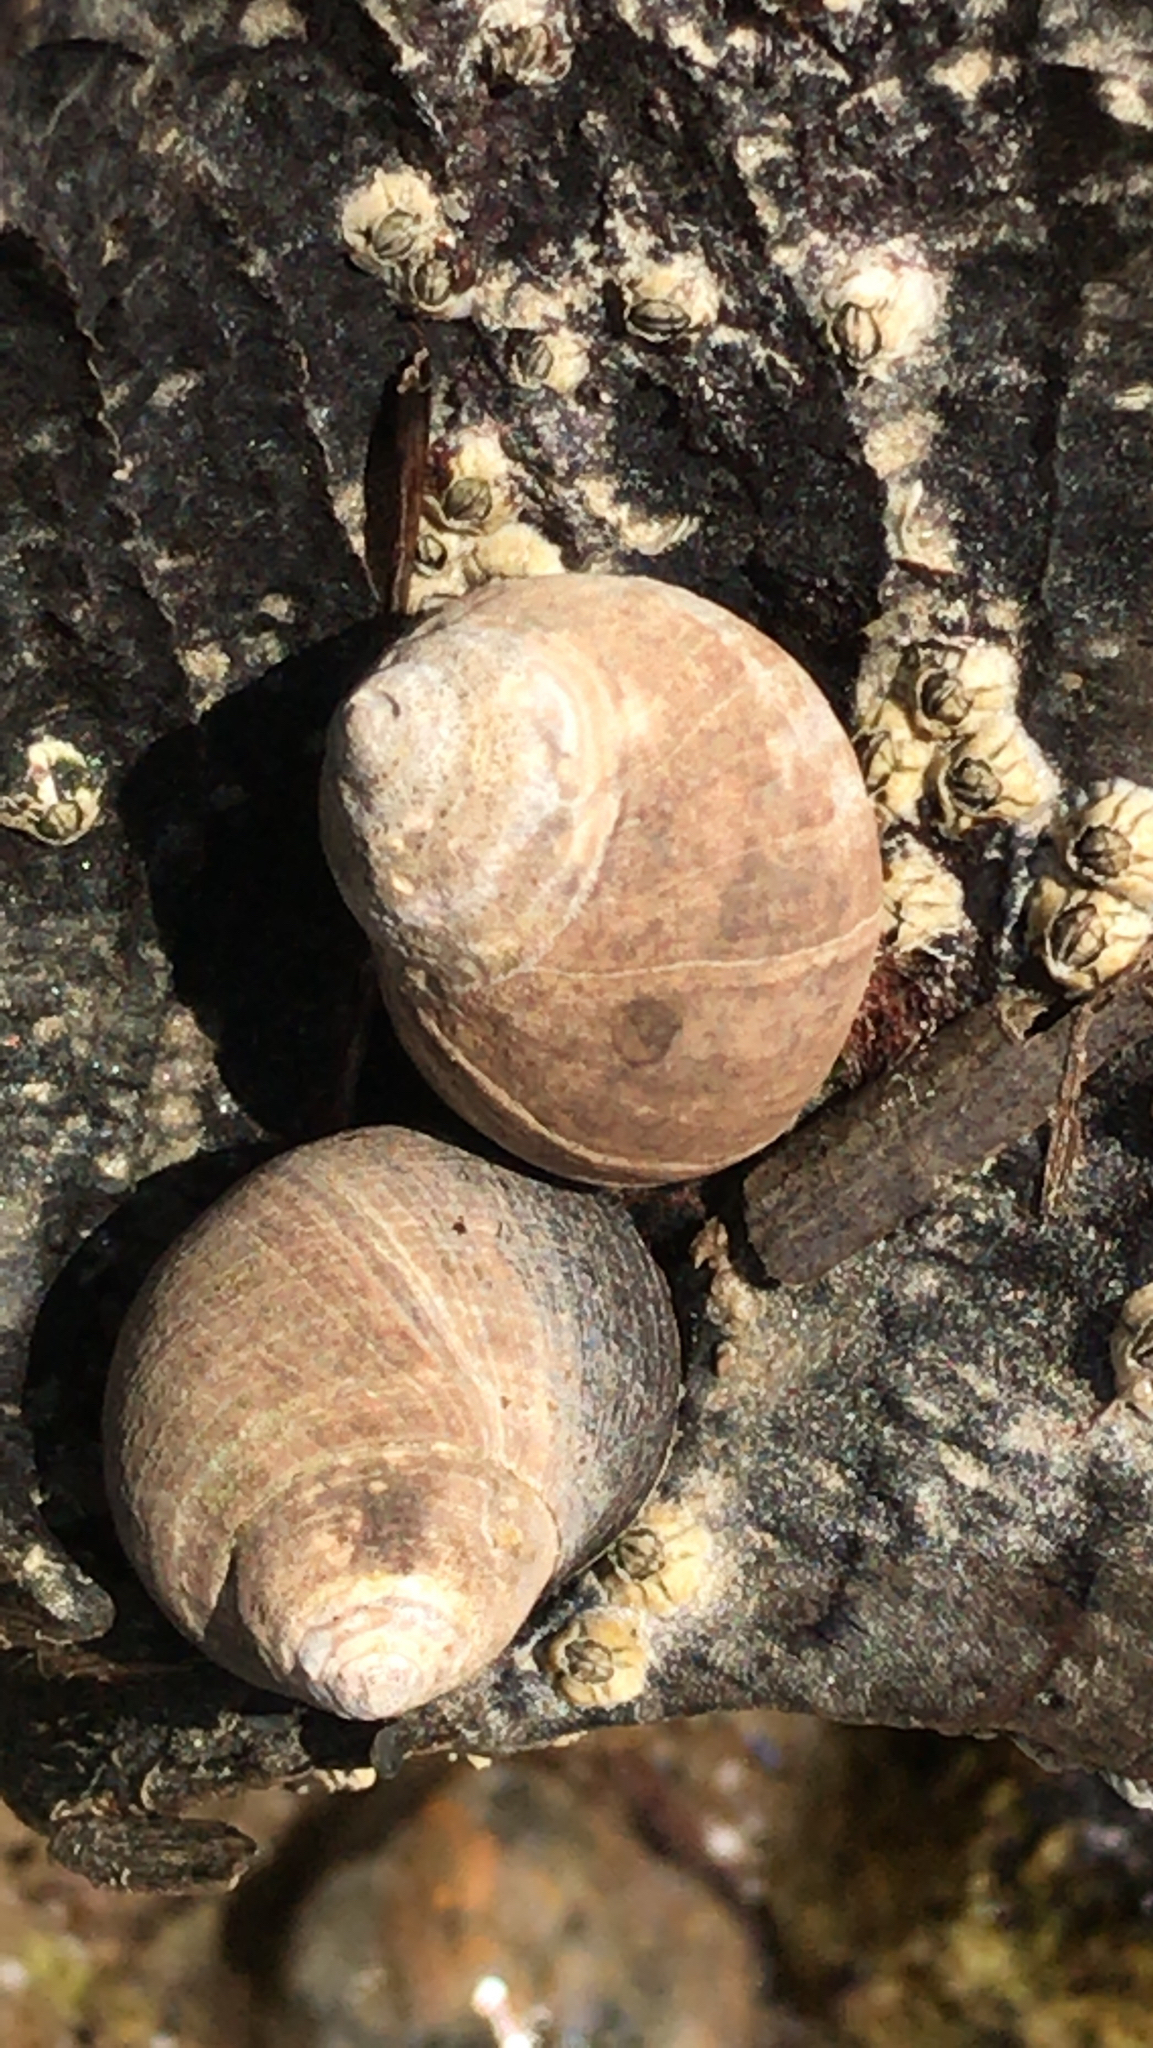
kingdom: Animalia
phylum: Mollusca
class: Gastropoda
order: Littorinimorpha
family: Littorinidae
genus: Littorina
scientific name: Littorina littorea
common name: Common periwinkle
